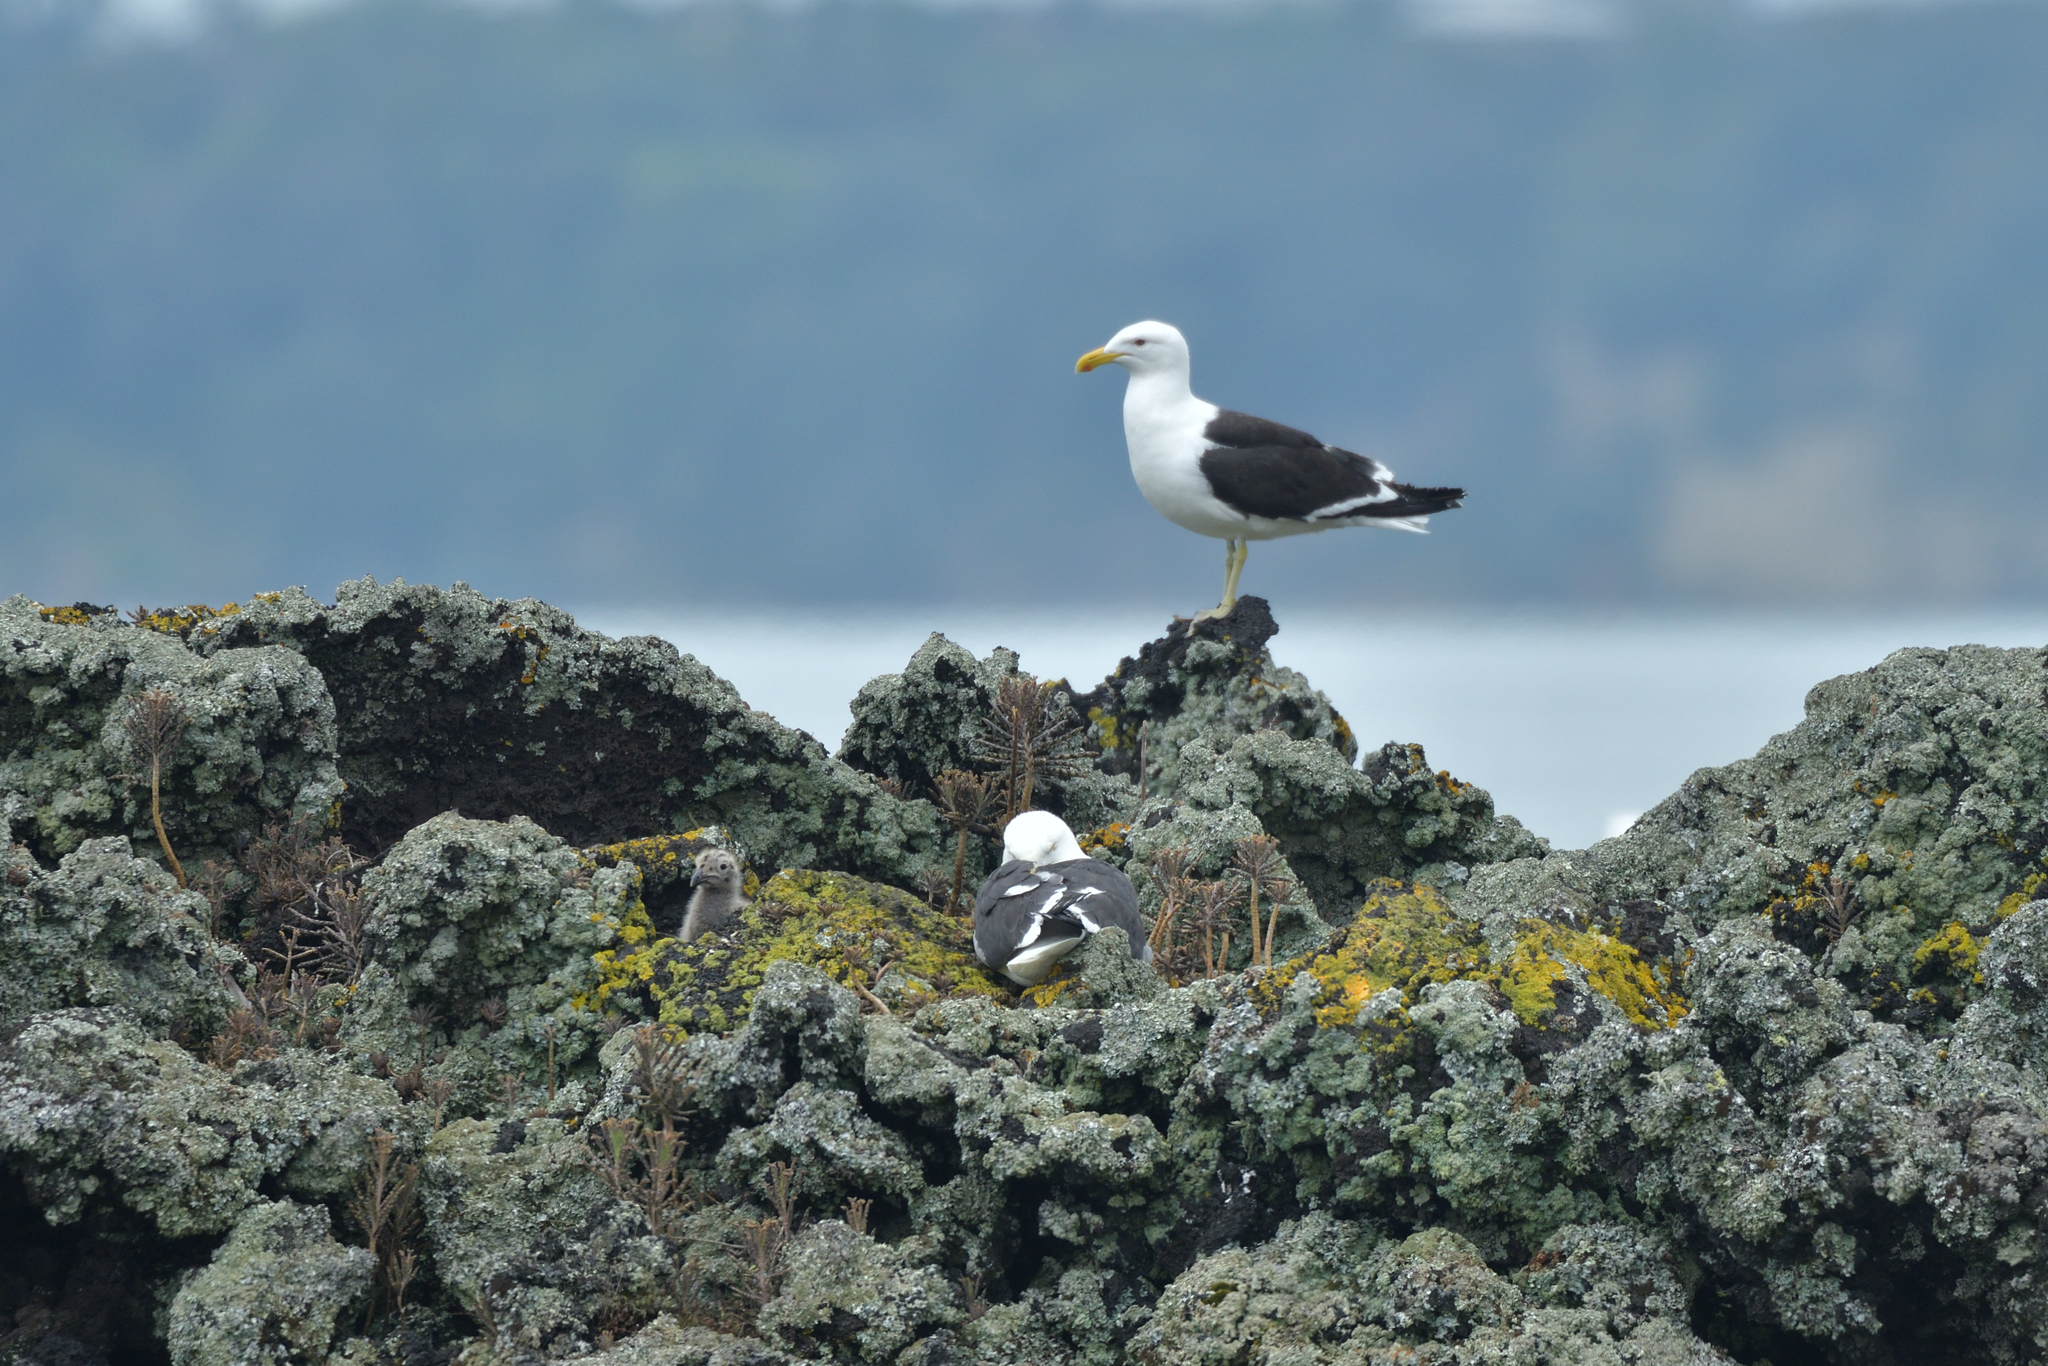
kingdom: Animalia
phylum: Chordata
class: Aves
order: Charadriiformes
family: Laridae
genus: Larus
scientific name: Larus dominicanus
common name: Kelp gull
